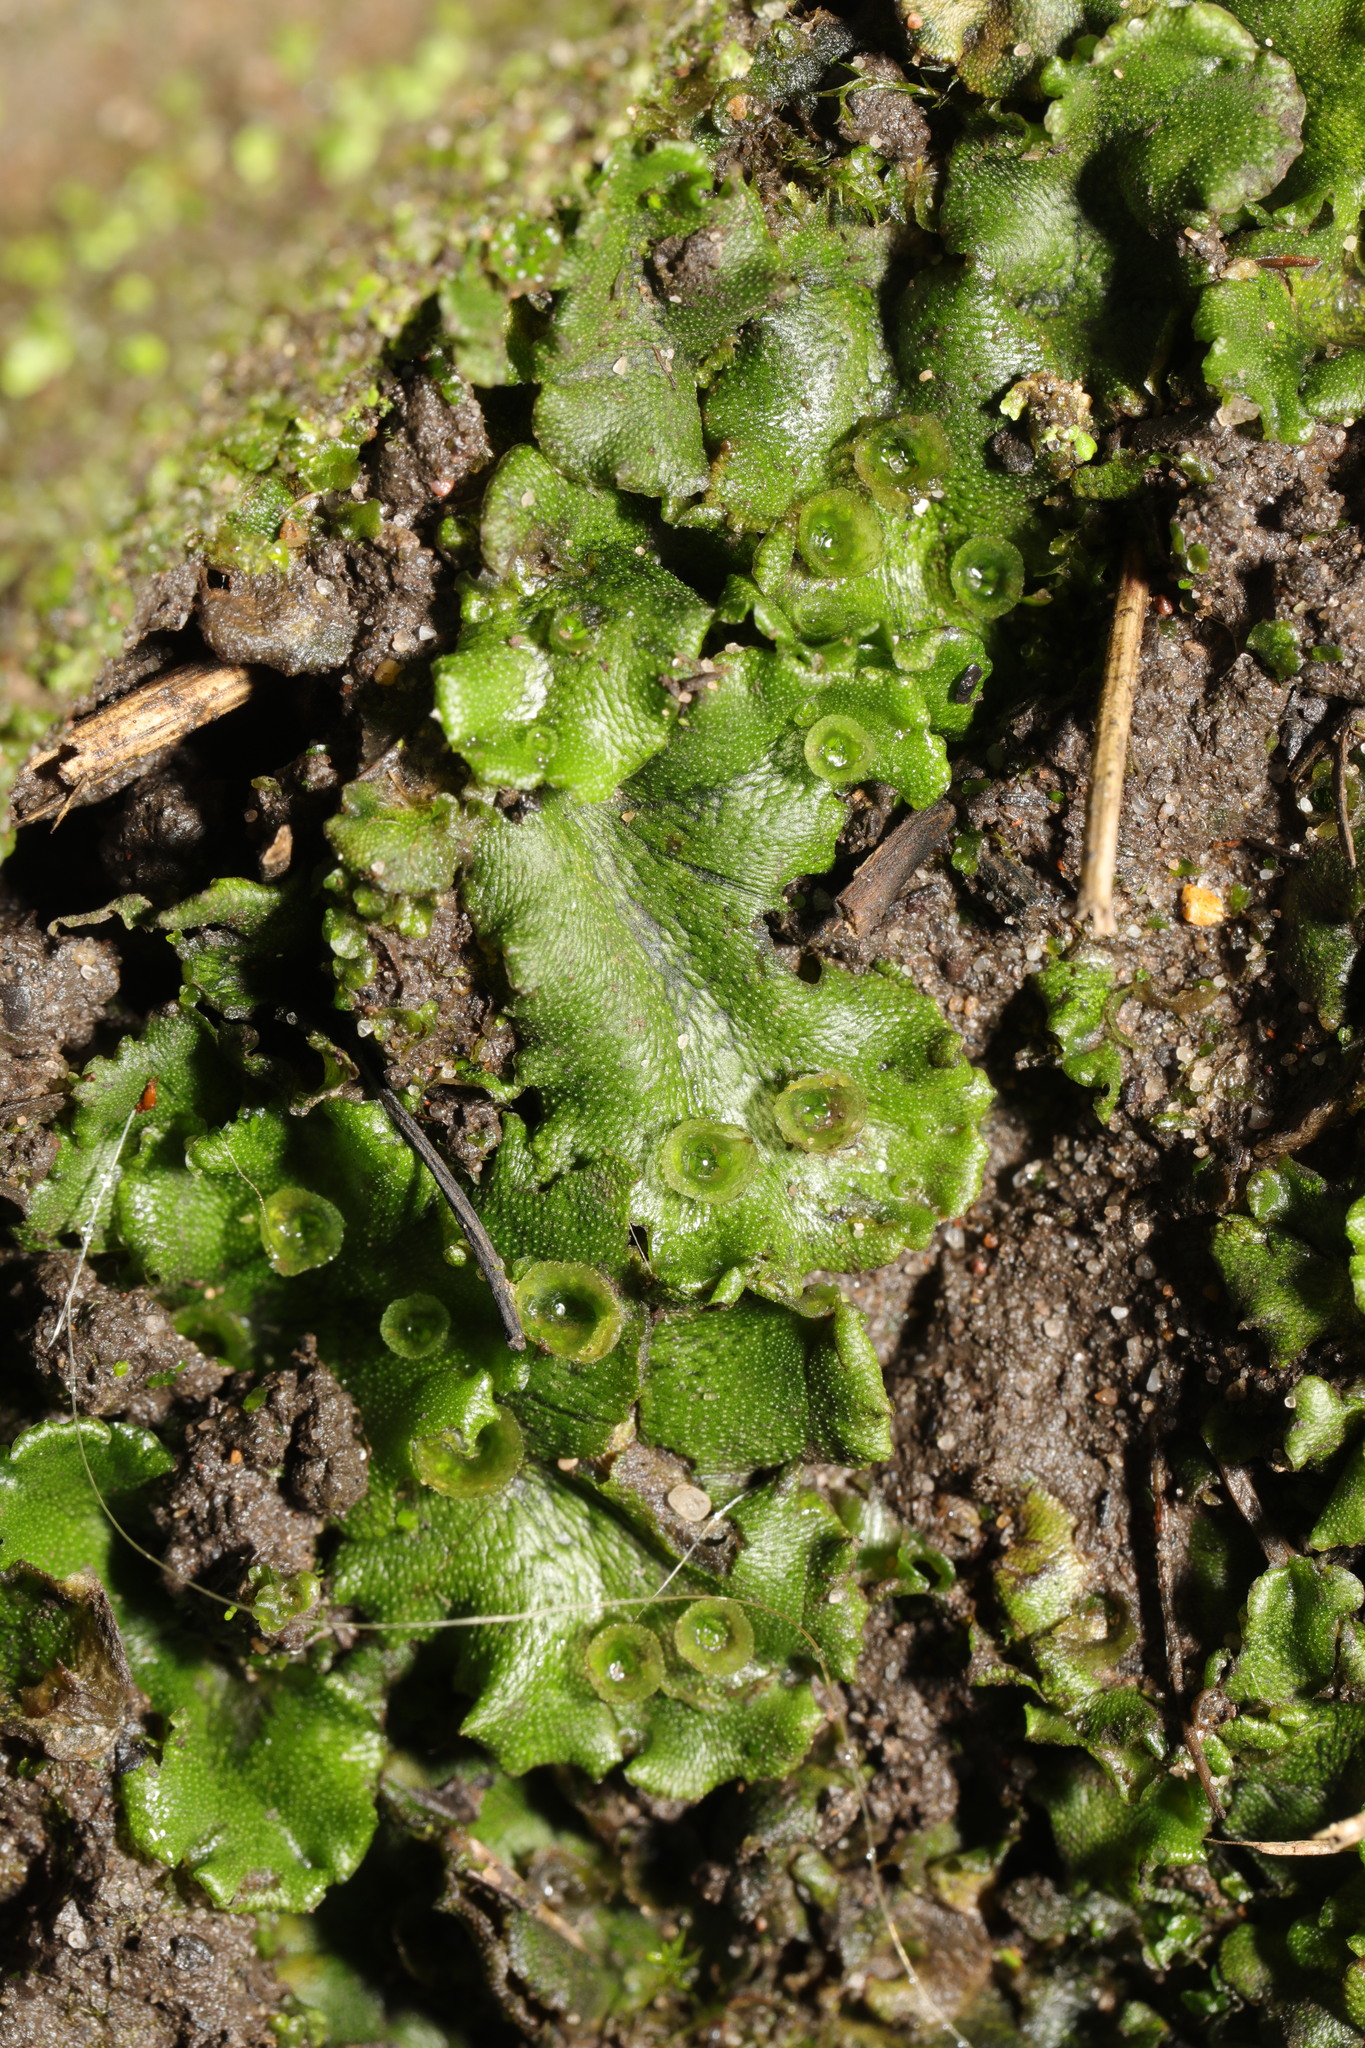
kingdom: Plantae
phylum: Marchantiophyta
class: Marchantiopsida
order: Marchantiales
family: Marchantiaceae
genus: Marchantia
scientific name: Marchantia polymorpha
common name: Common liverwort
